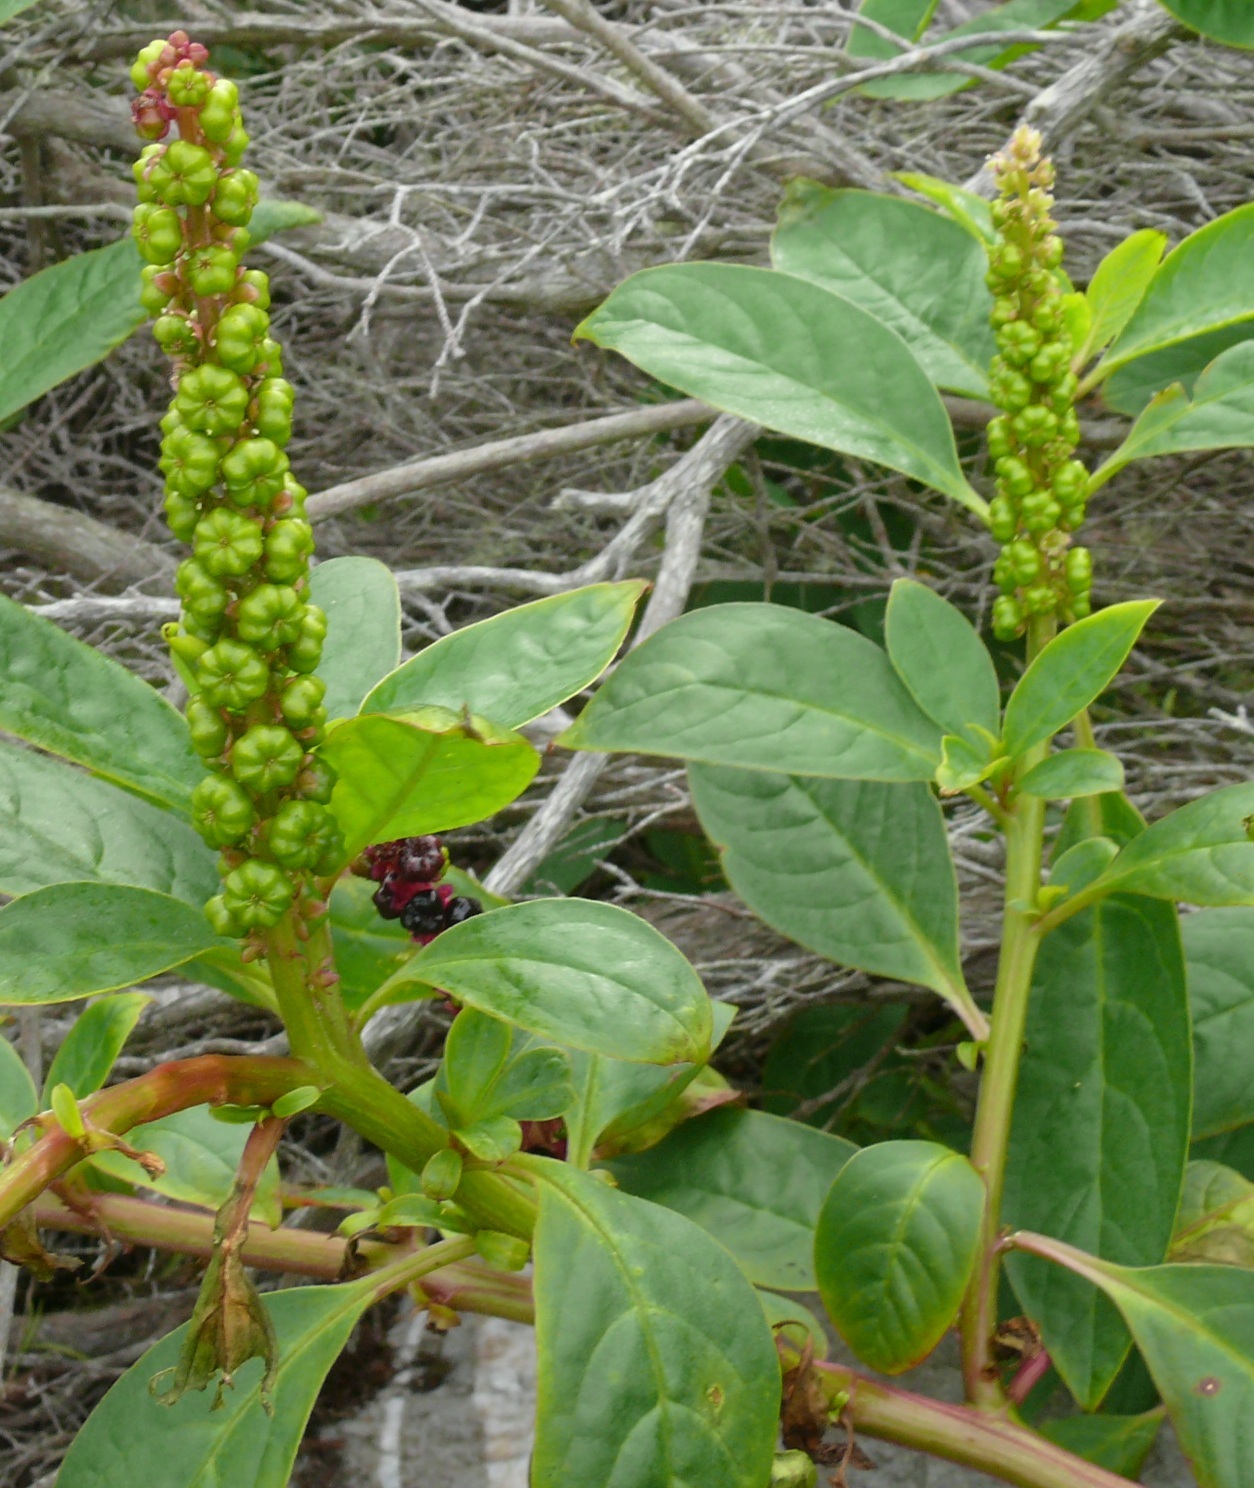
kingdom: Plantae
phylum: Tracheophyta
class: Magnoliopsida
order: Caryophyllales
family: Phytolaccaceae
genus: Phytolacca
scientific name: Phytolacca icosandra
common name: Button pokeweed
